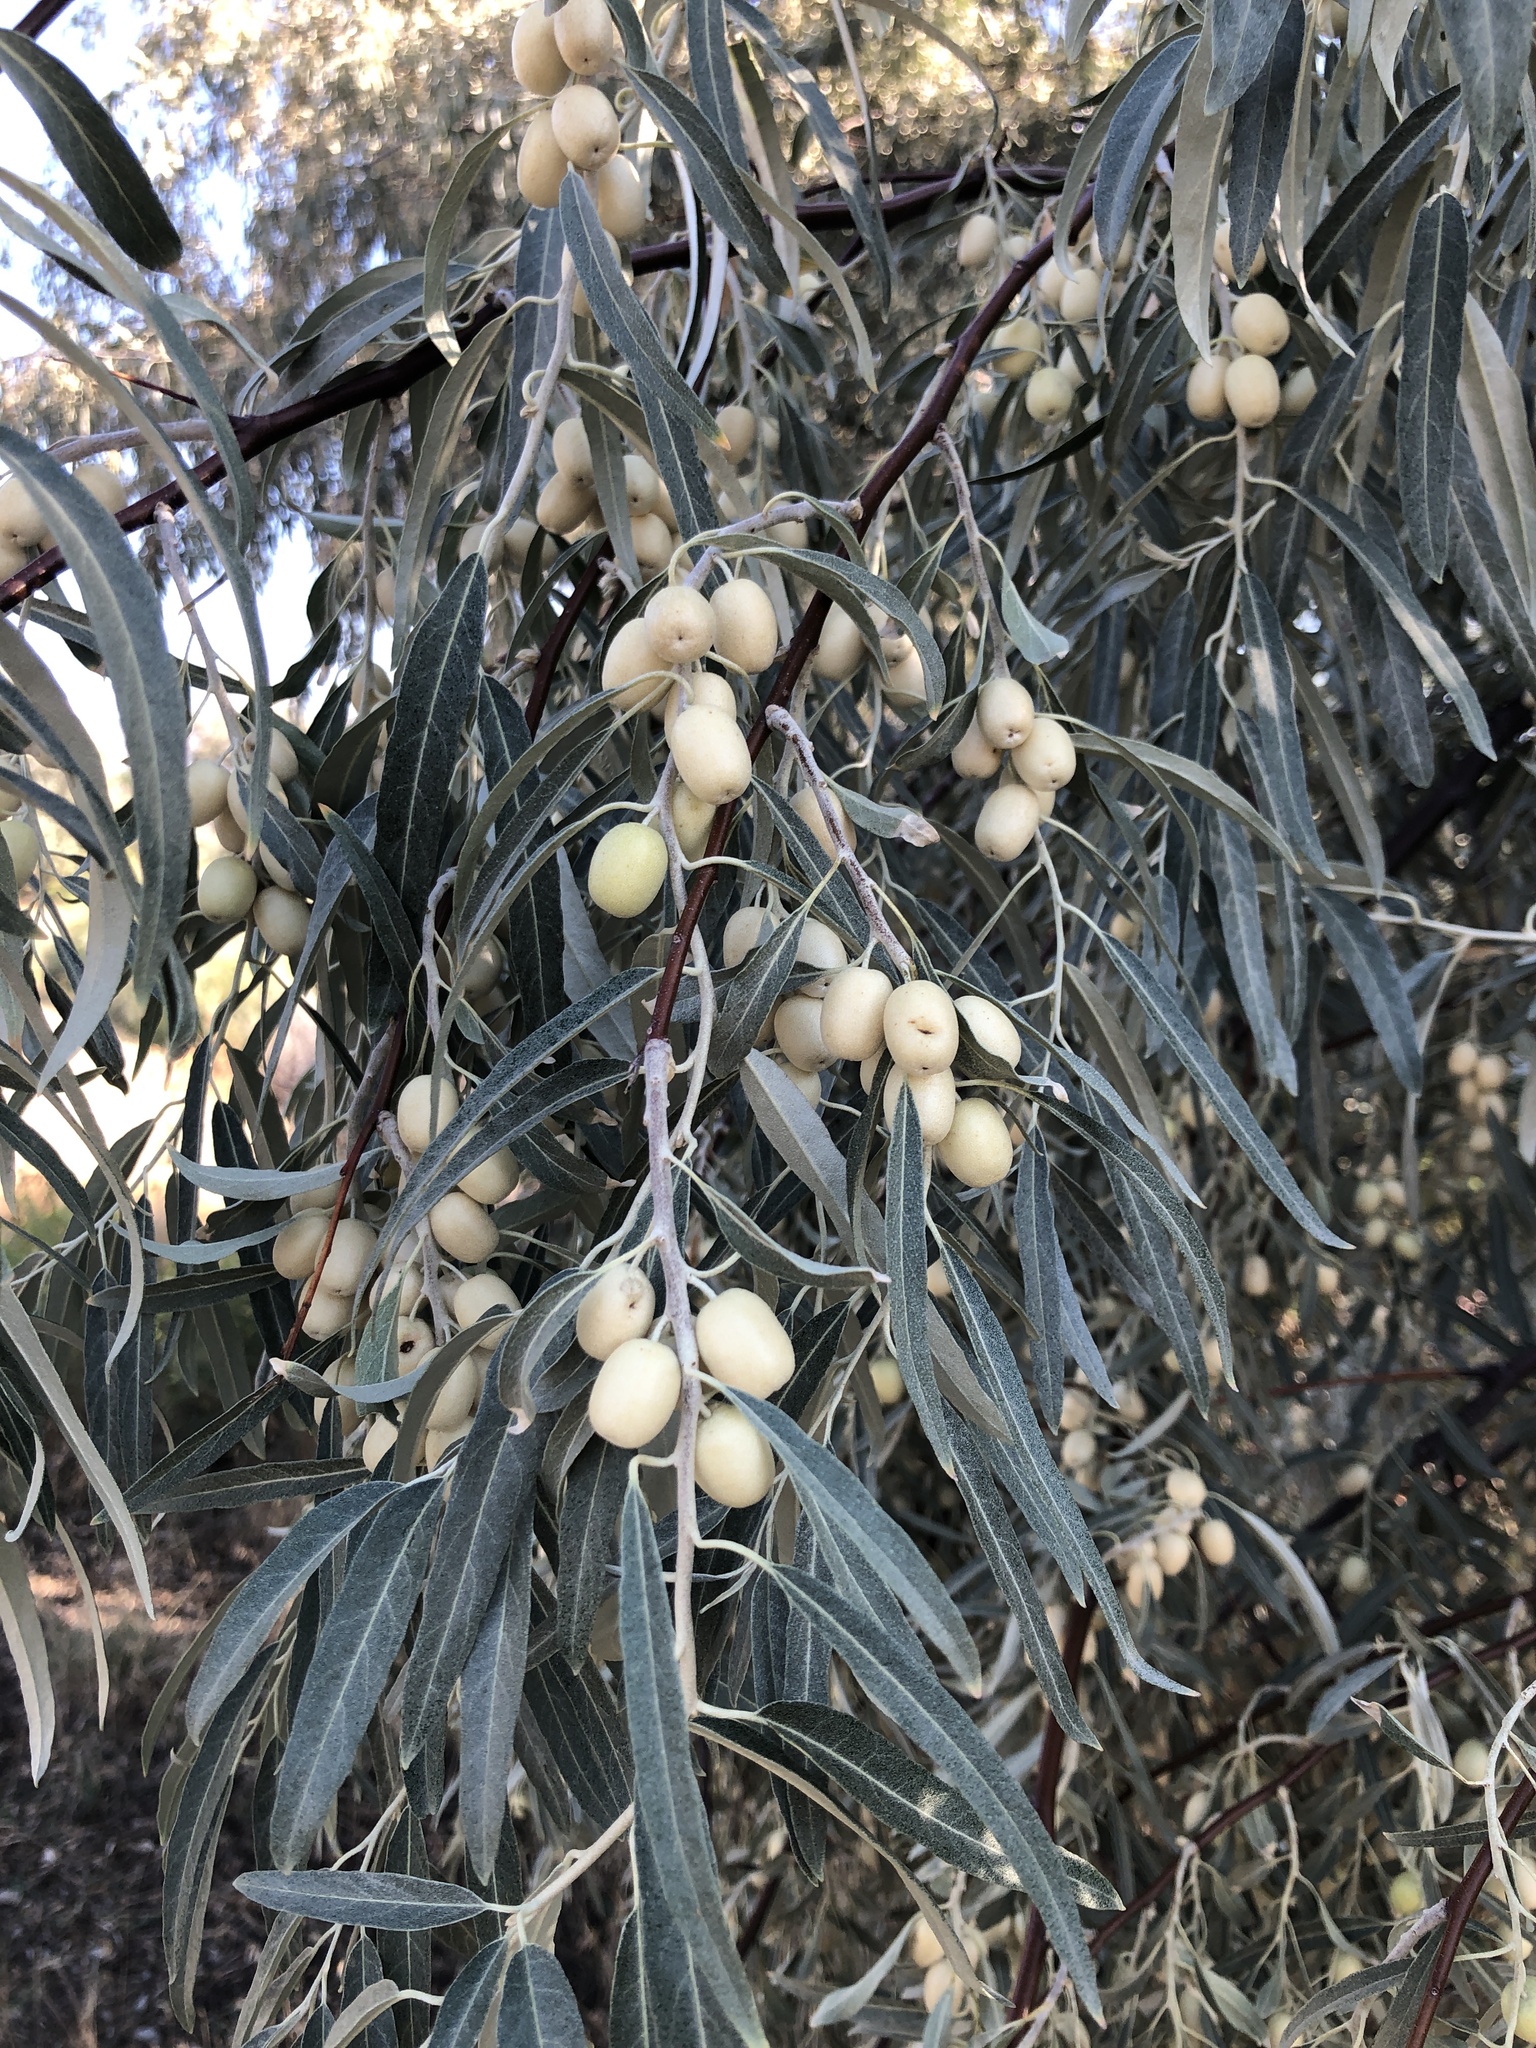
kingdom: Plantae
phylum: Tracheophyta
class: Magnoliopsida
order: Rosales
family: Elaeagnaceae
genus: Elaeagnus
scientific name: Elaeagnus angustifolia
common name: Russian olive
